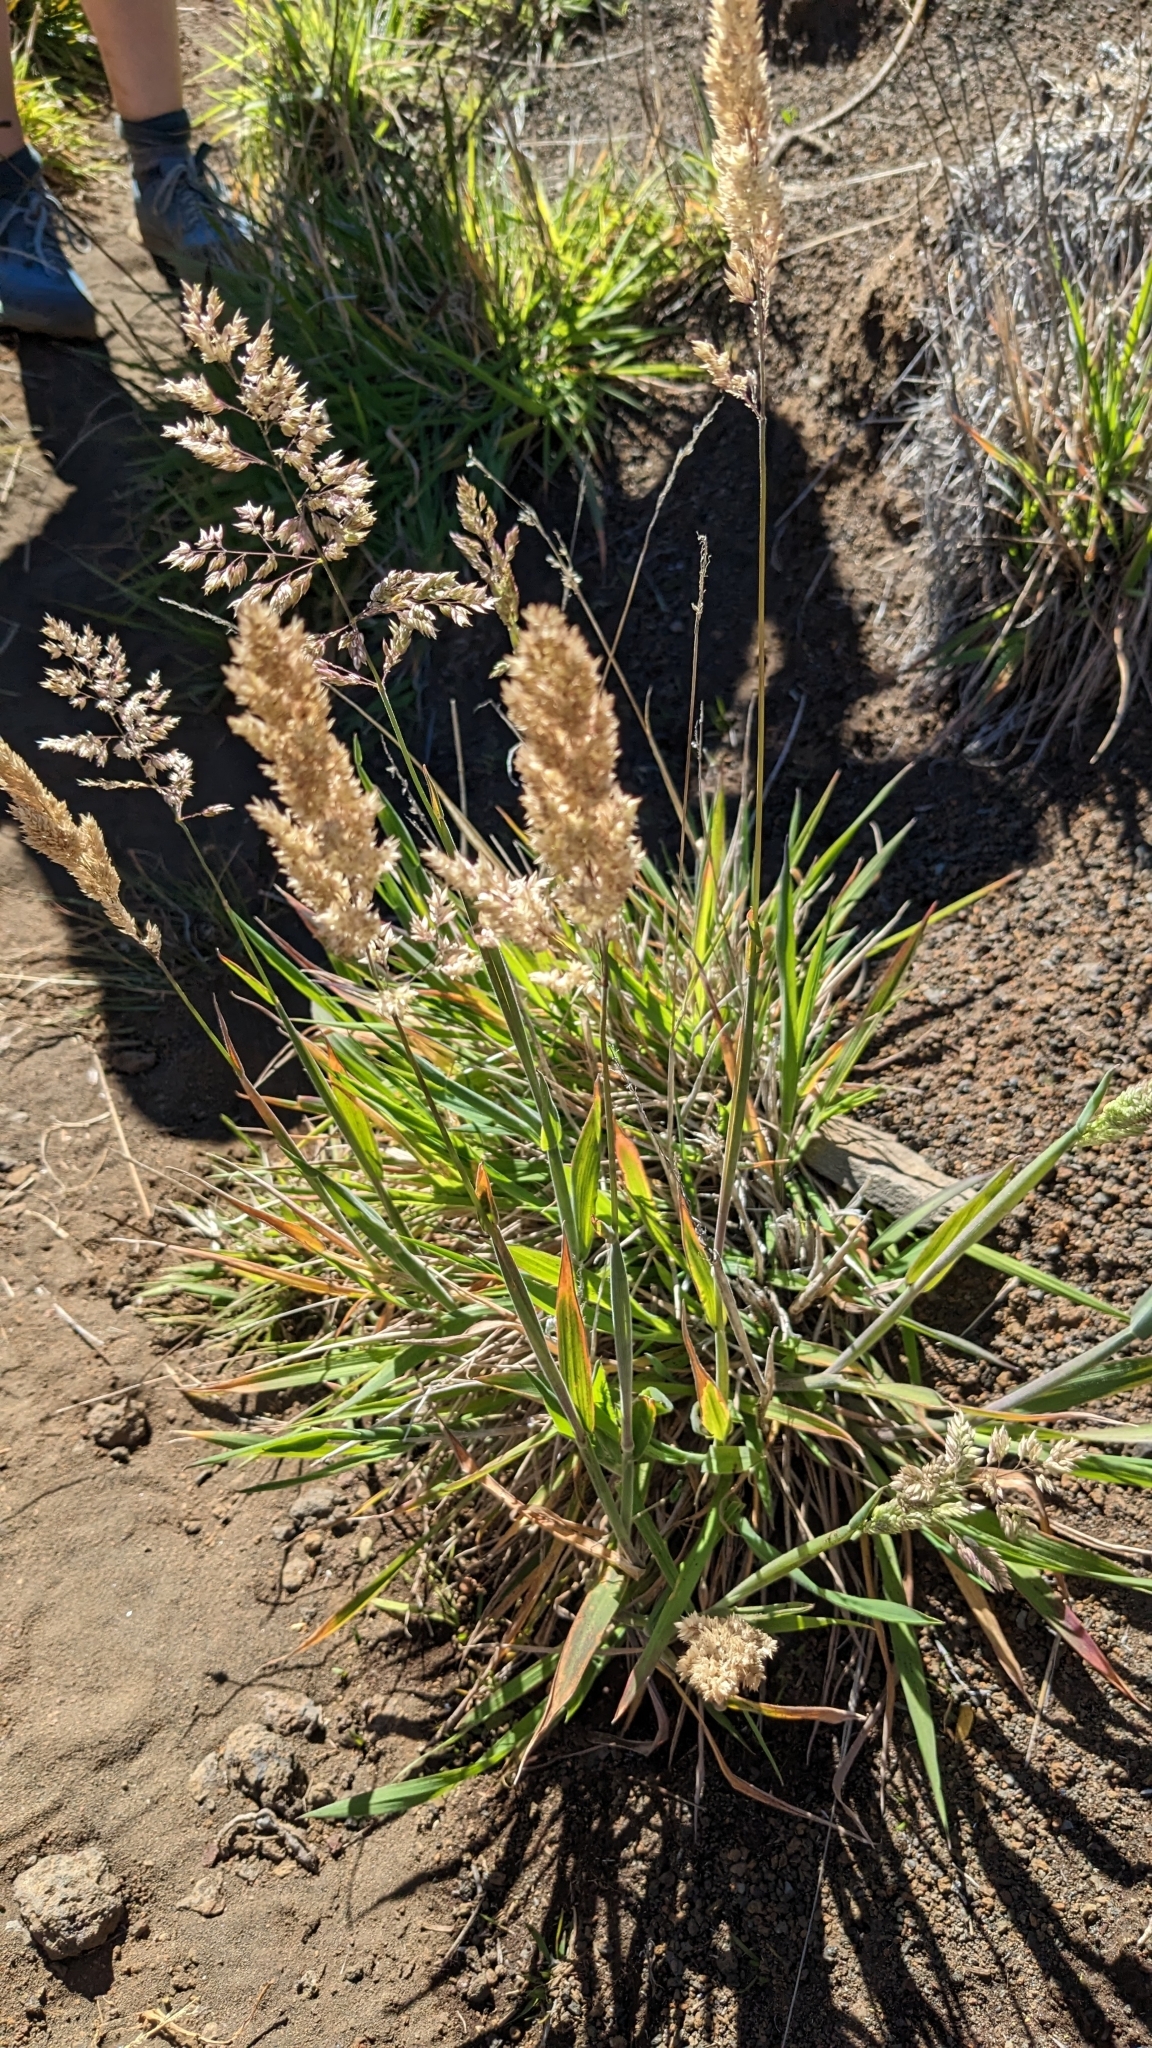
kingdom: Plantae
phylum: Tracheophyta
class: Liliopsida
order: Poales
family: Poaceae
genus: Holcus
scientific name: Holcus lanatus
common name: Yorkshire-fog
